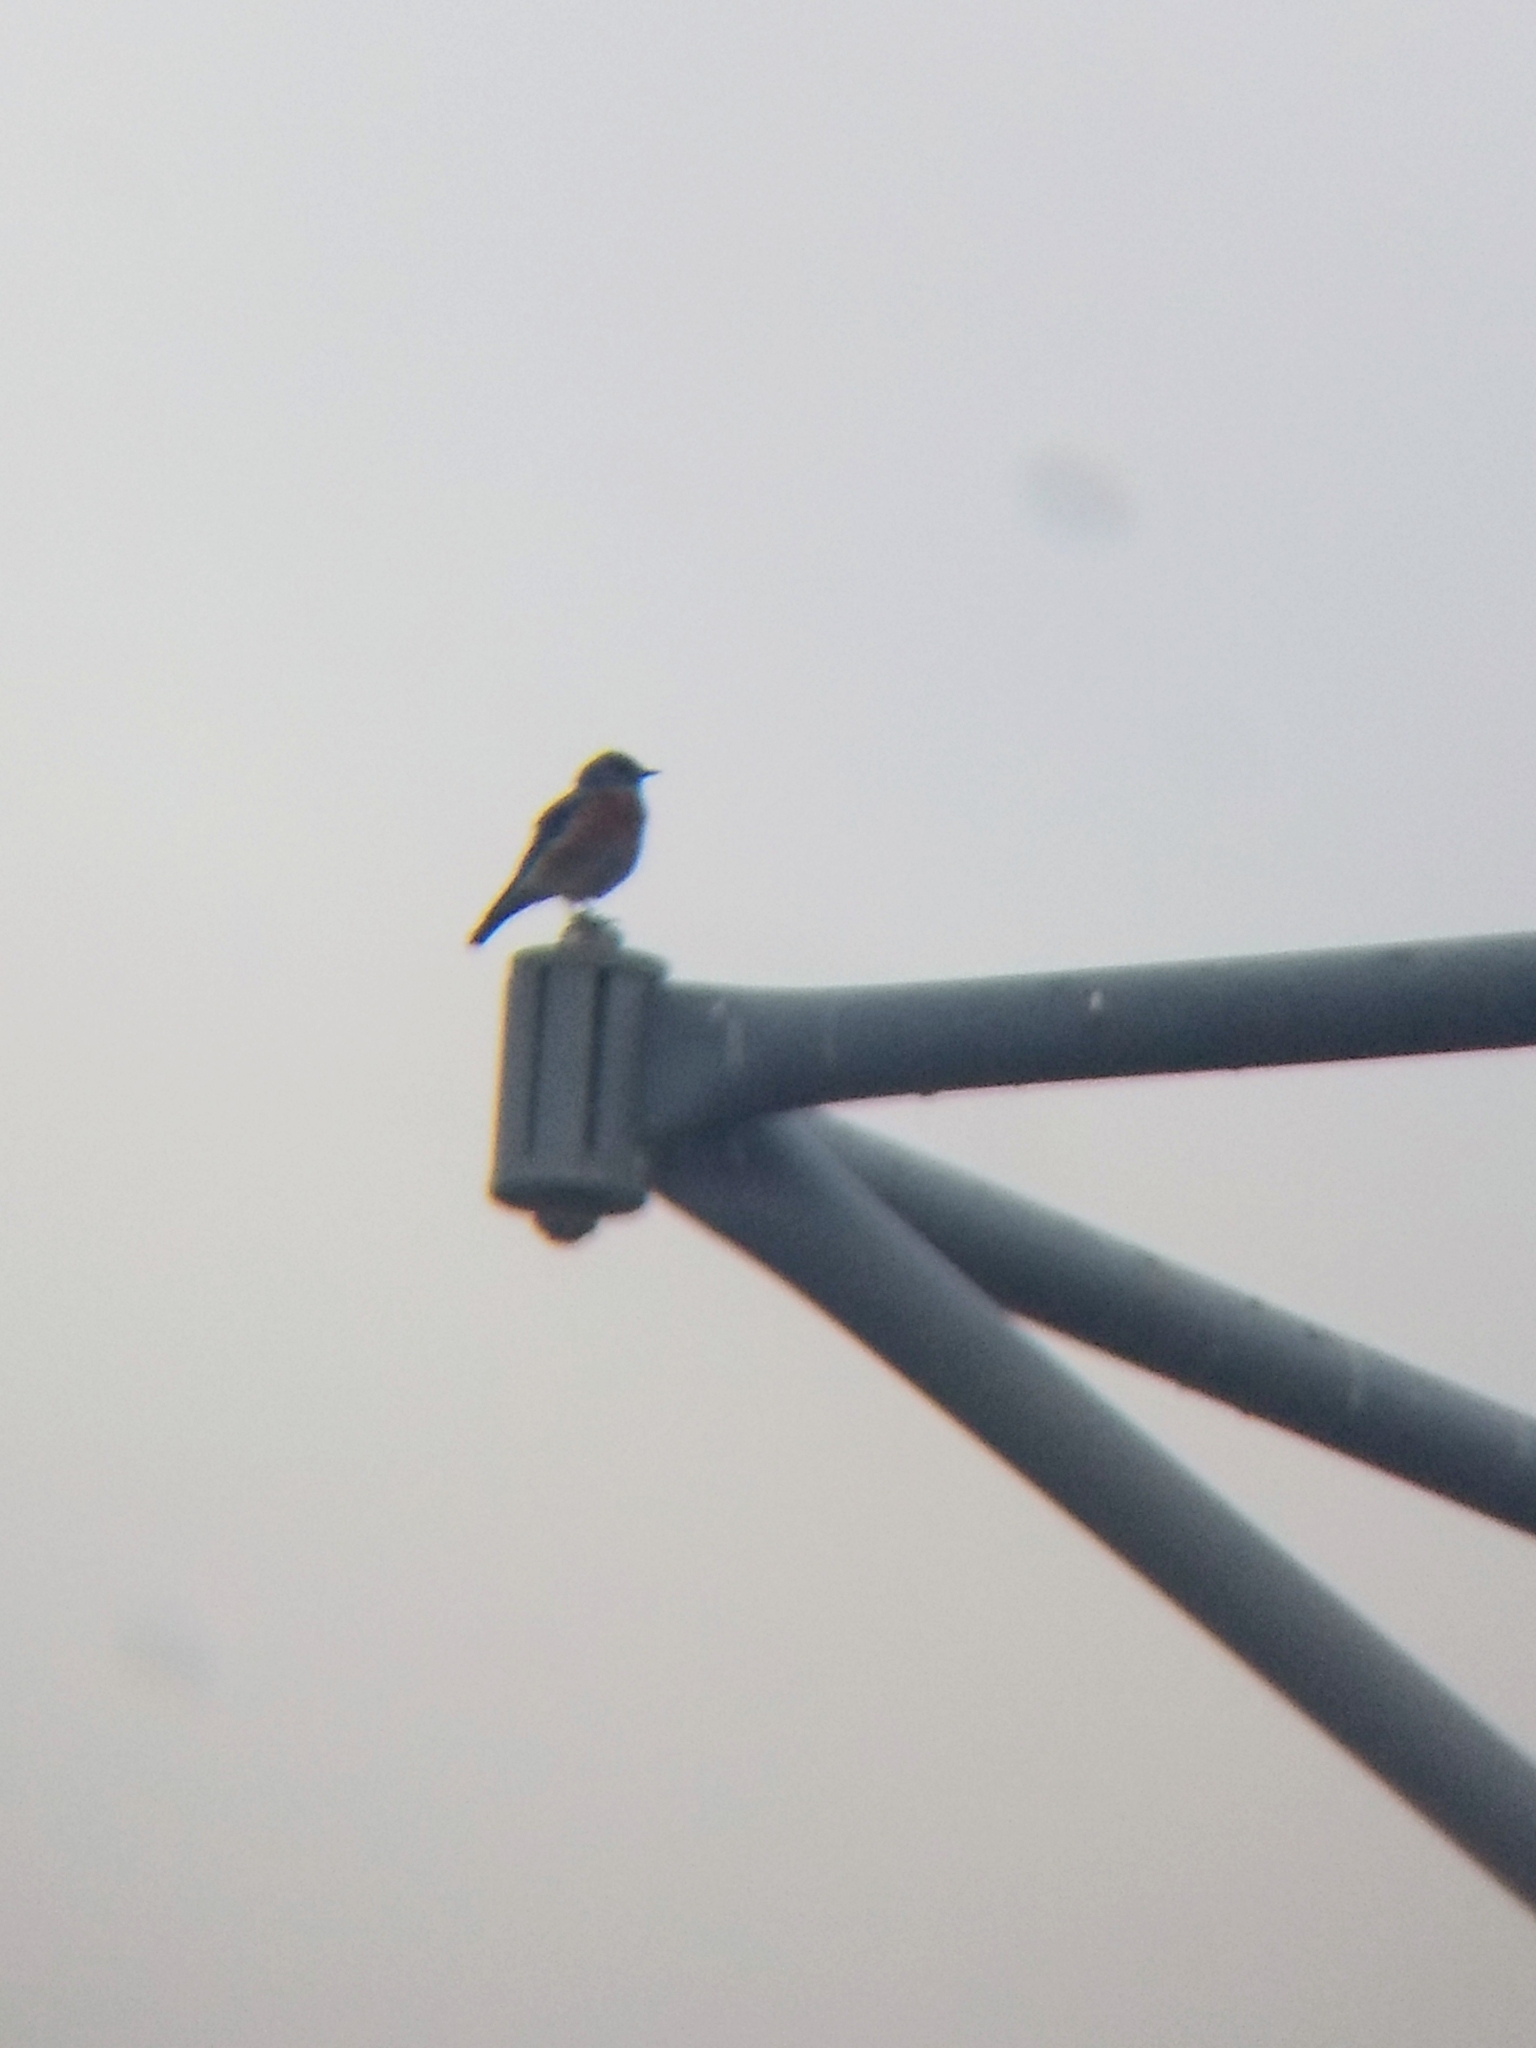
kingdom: Animalia
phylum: Chordata
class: Aves
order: Passeriformes
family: Turdidae
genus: Sialia
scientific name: Sialia mexicana
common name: Western bluebird
